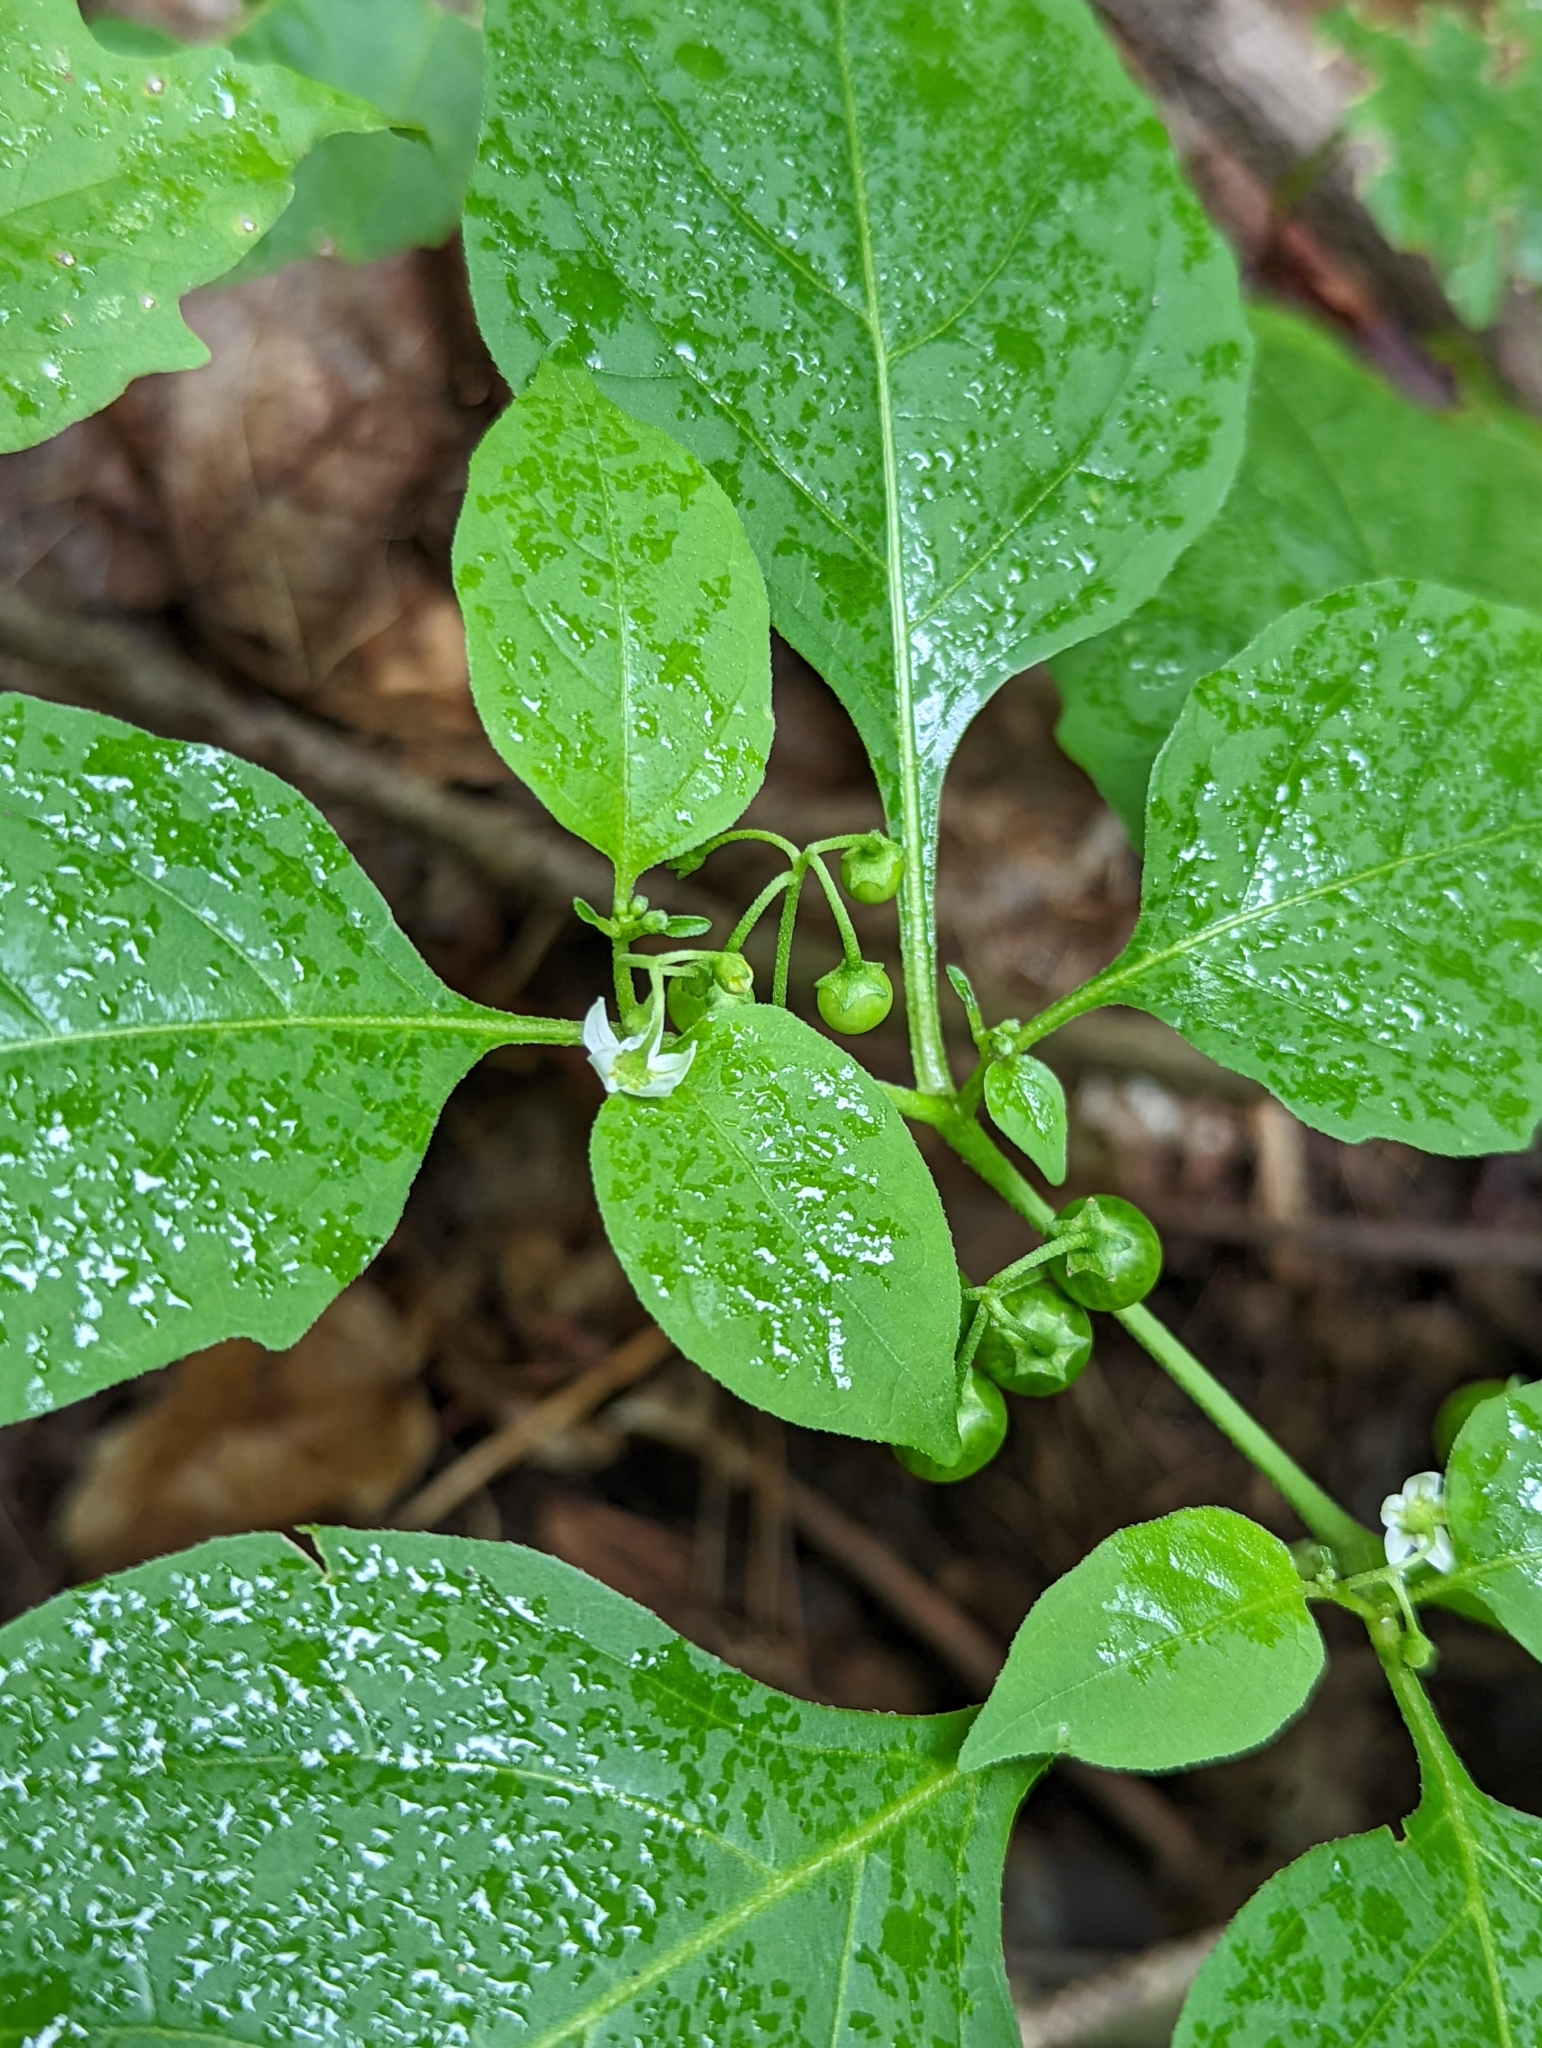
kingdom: Plantae
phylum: Tracheophyta
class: Magnoliopsida
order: Solanales
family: Solanaceae
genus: Solanum
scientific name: Solanum emulans
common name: Eastern black nightshade
